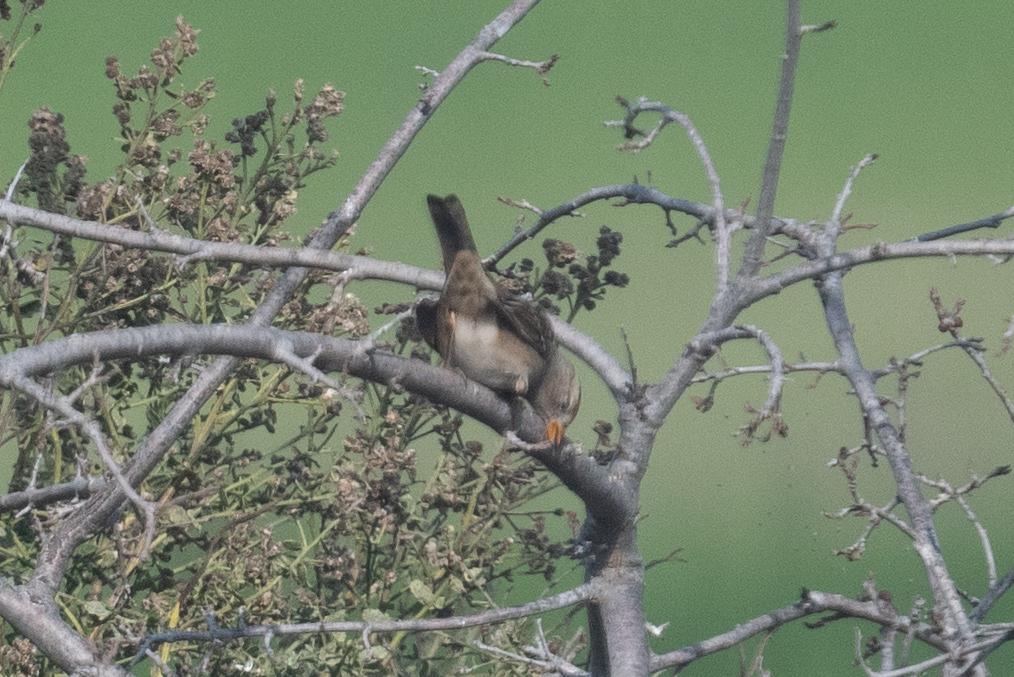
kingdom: Animalia
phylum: Chordata
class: Aves
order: Passeriformes
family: Passerellidae
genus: Zonotrichia
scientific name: Zonotrichia leucophrys
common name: White-crowned sparrow
